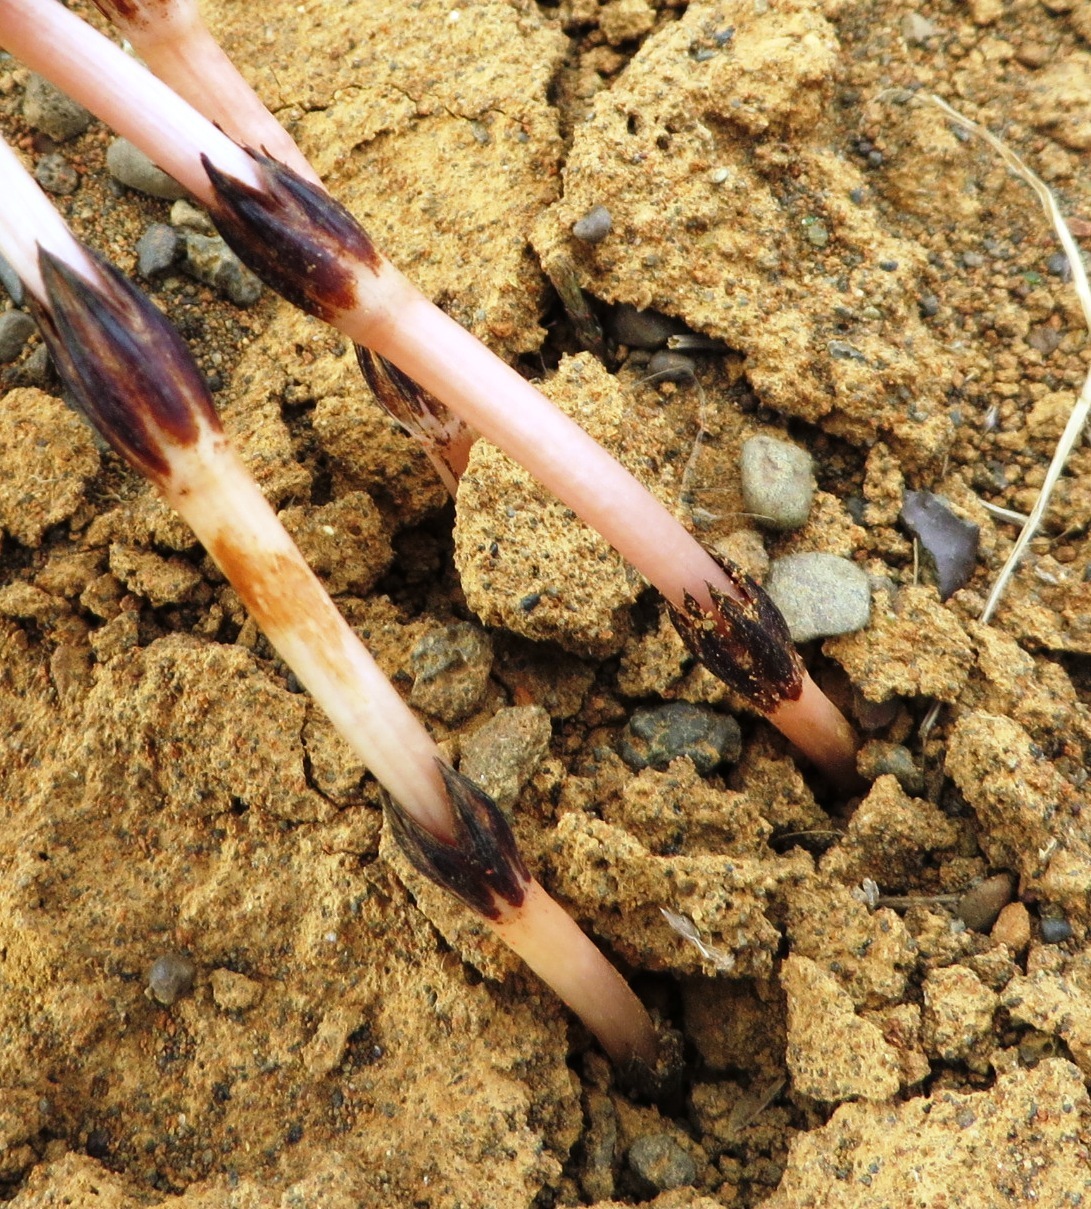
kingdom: Plantae
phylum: Tracheophyta
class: Polypodiopsida
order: Equisetales
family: Equisetaceae
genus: Equisetum
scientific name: Equisetum arvense
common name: Field horsetail
